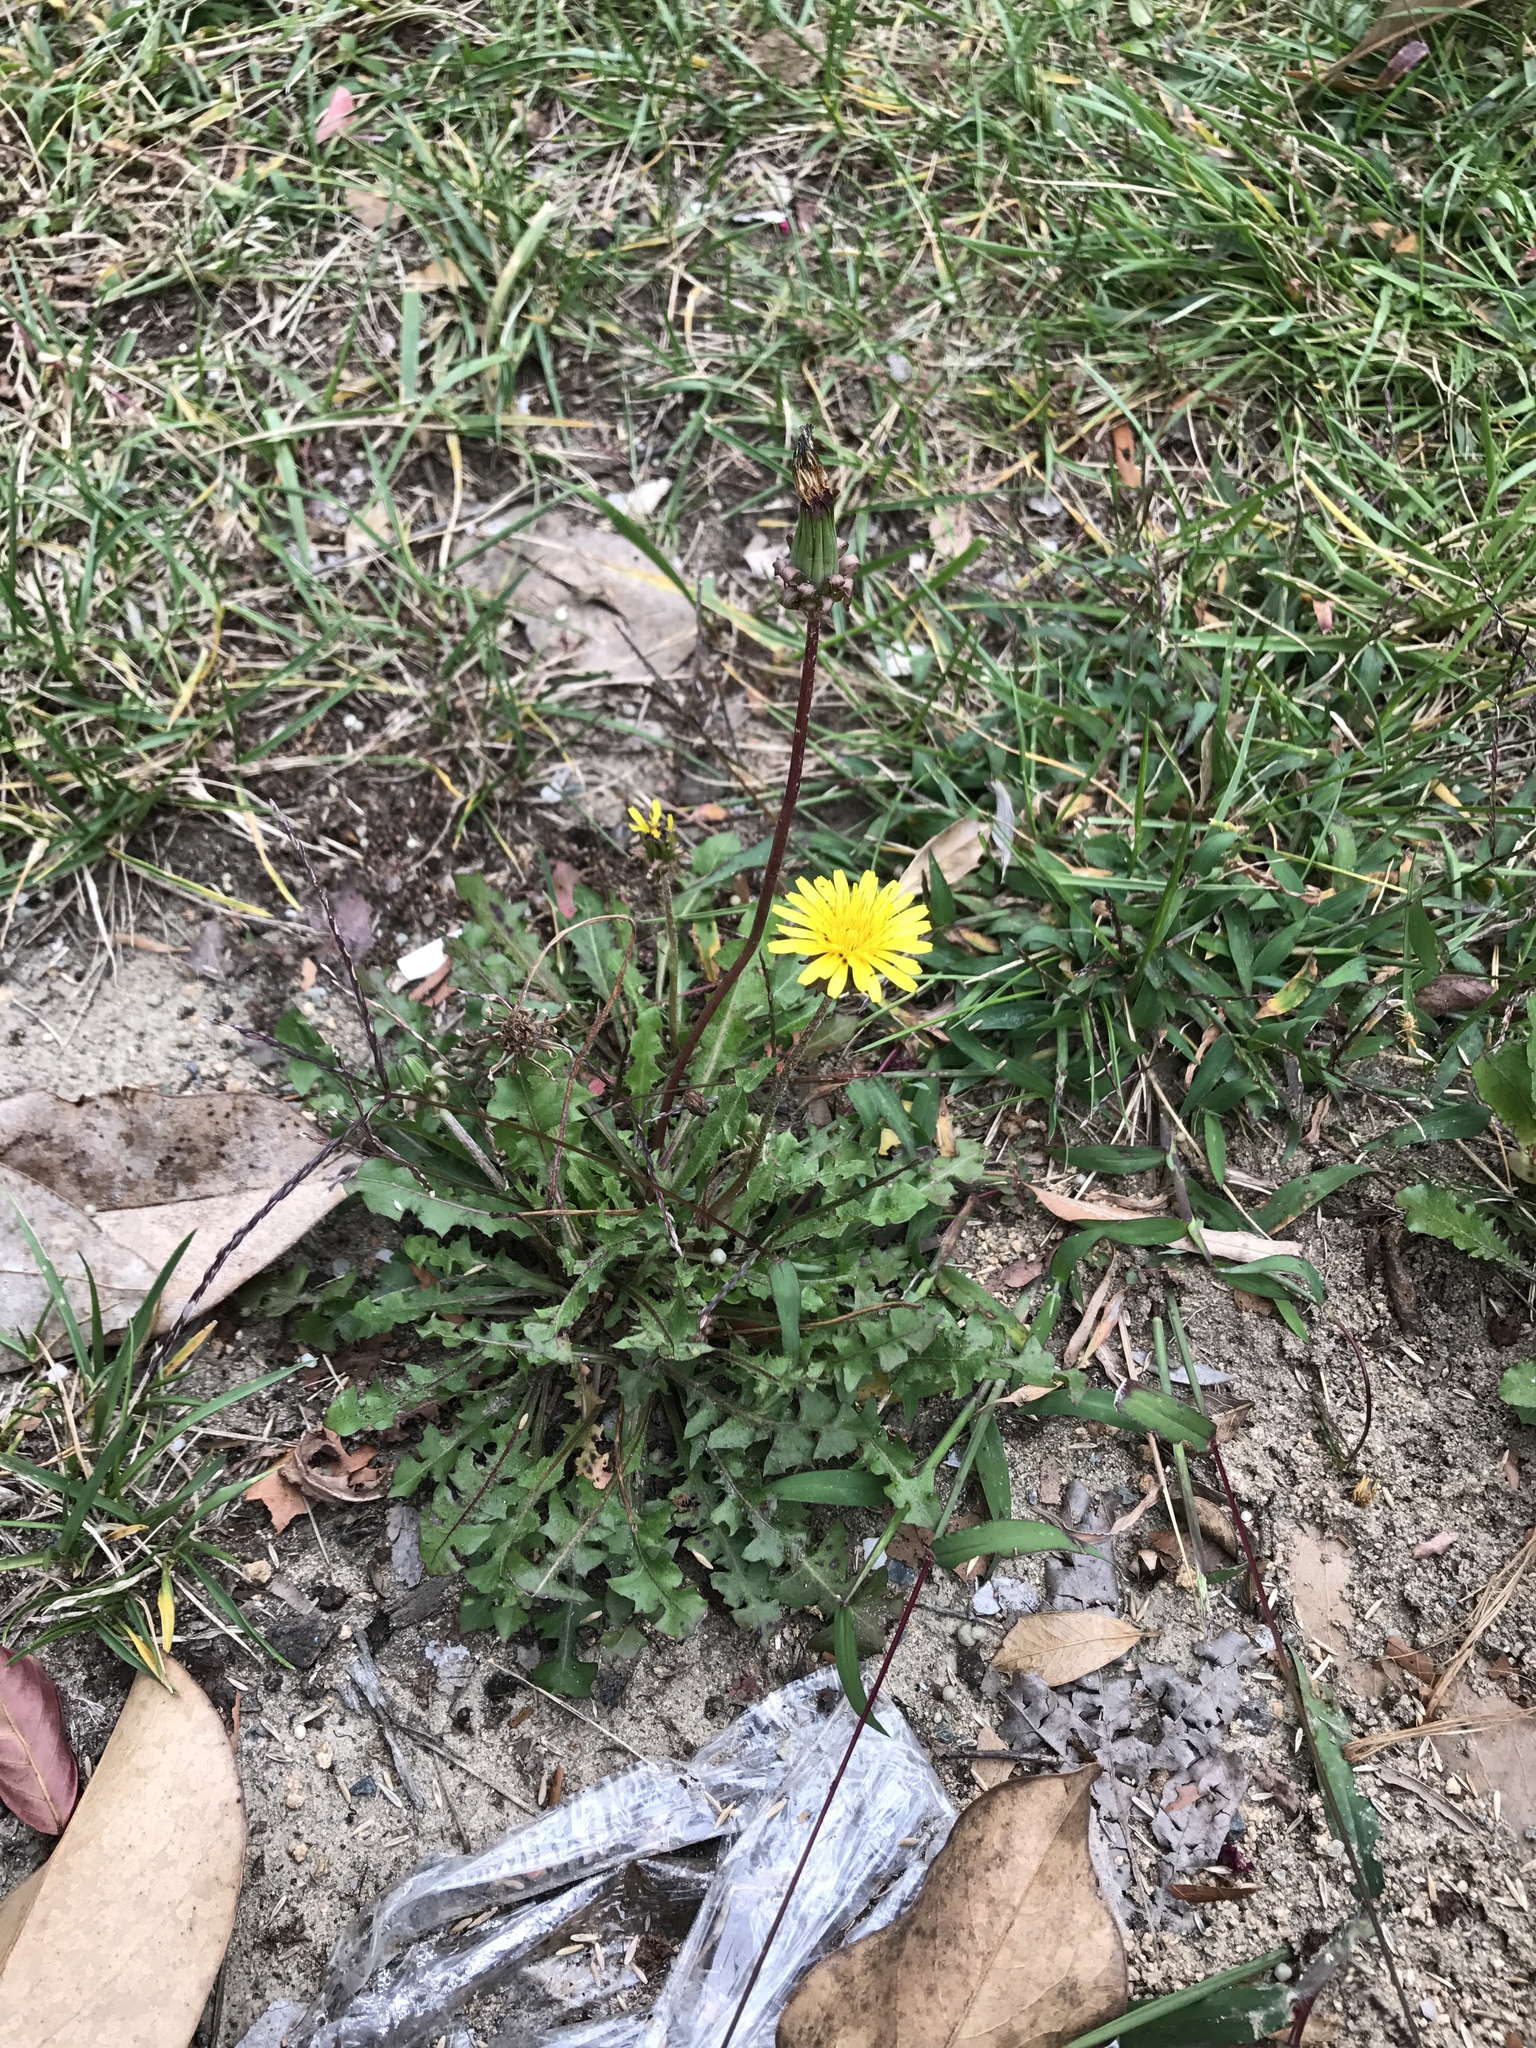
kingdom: Plantae
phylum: Tracheophyta
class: Magnoliopsida
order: Asterales
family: Asteraceae
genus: Taraxacum
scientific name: Taraxacum officinale
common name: Common dandelion
